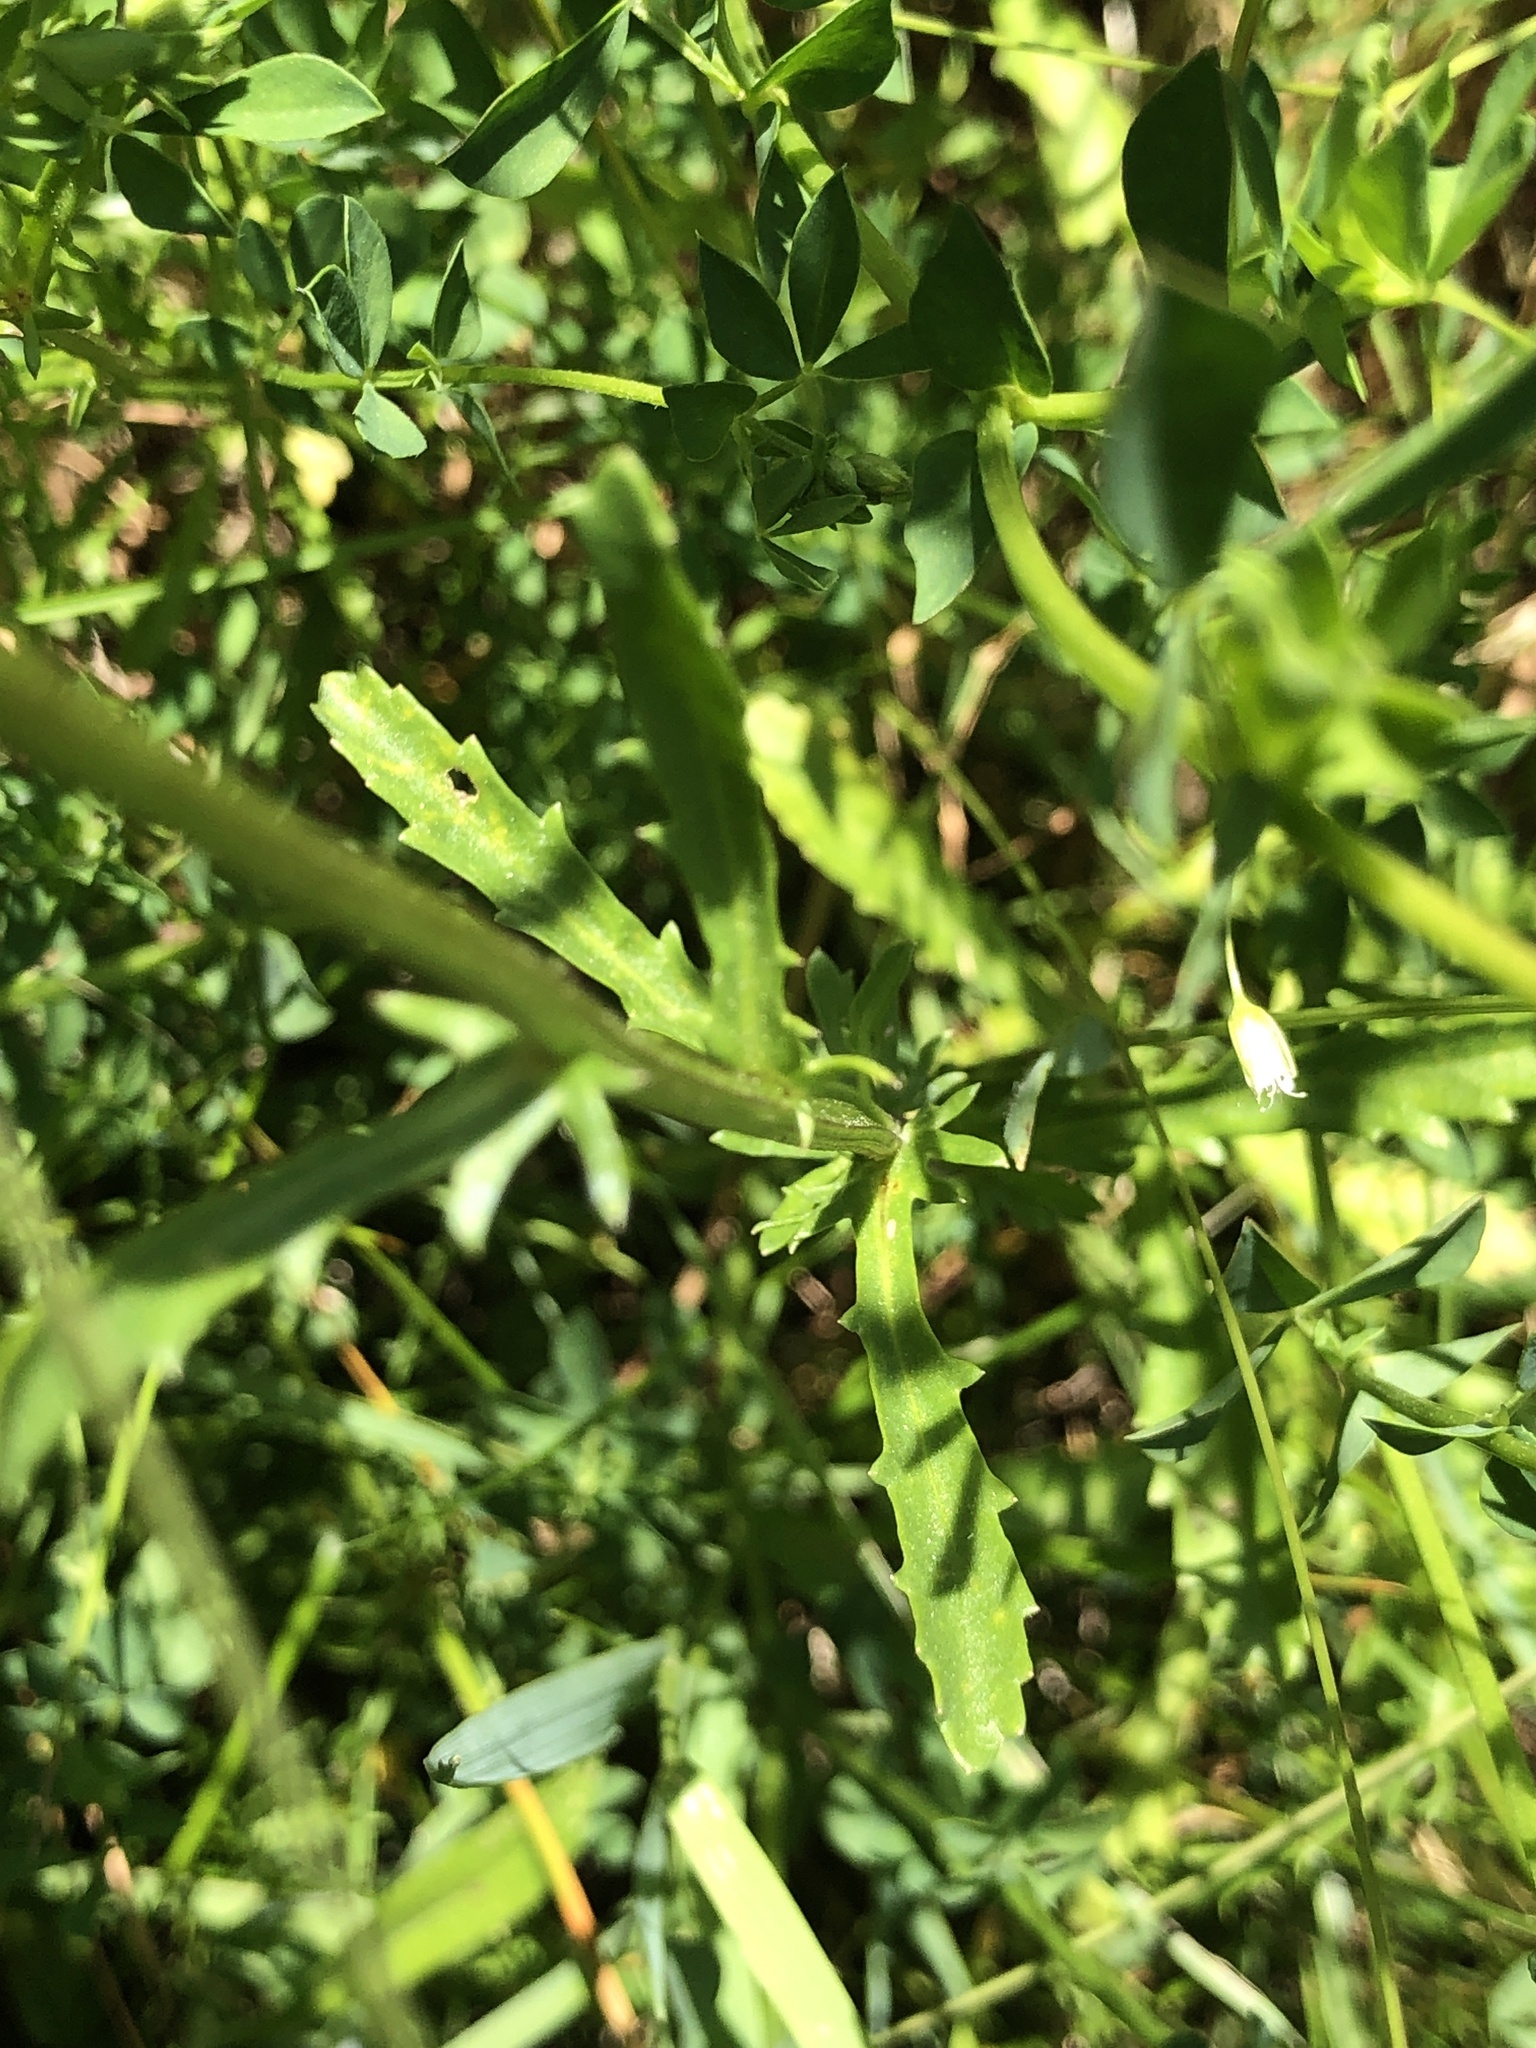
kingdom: Plantae
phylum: Tracheophyta
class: Magnoliopsida
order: Asterales
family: Asteraceae
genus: Leucanthemum
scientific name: Leucanthemum vulgare
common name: Oxeye daisy
